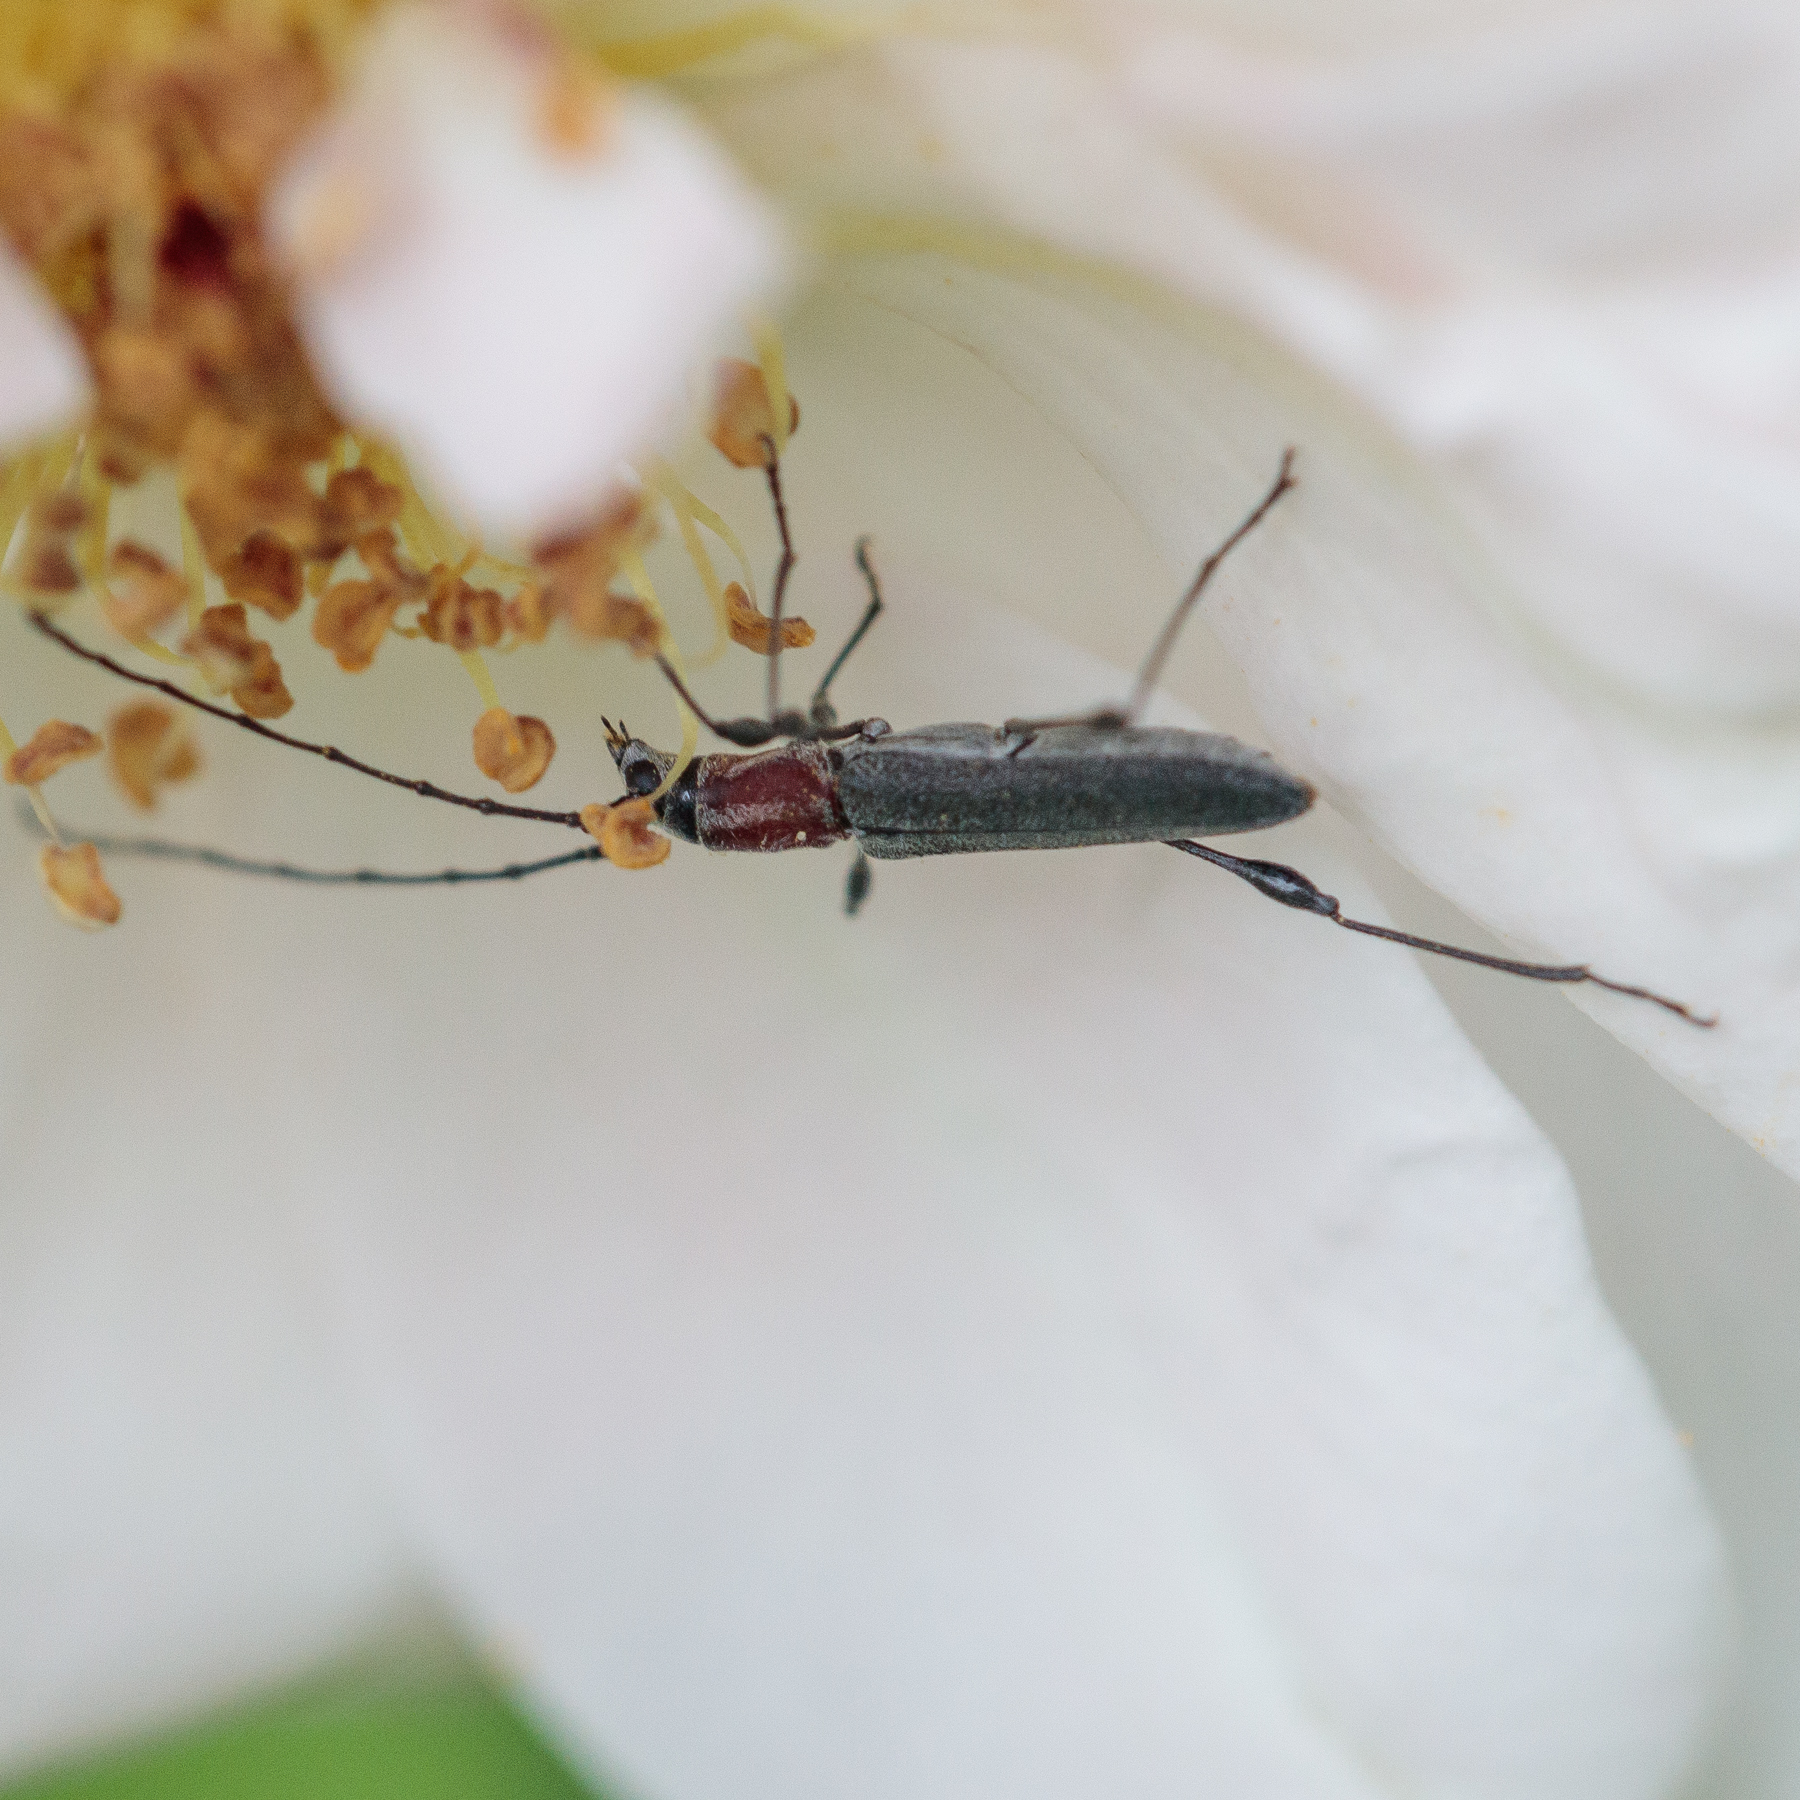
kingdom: Animalia
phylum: Arthropoda
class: Insecta
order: Coleoptera
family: Cerambycidae
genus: Rhopalophora
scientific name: Rhopalophora longipes
